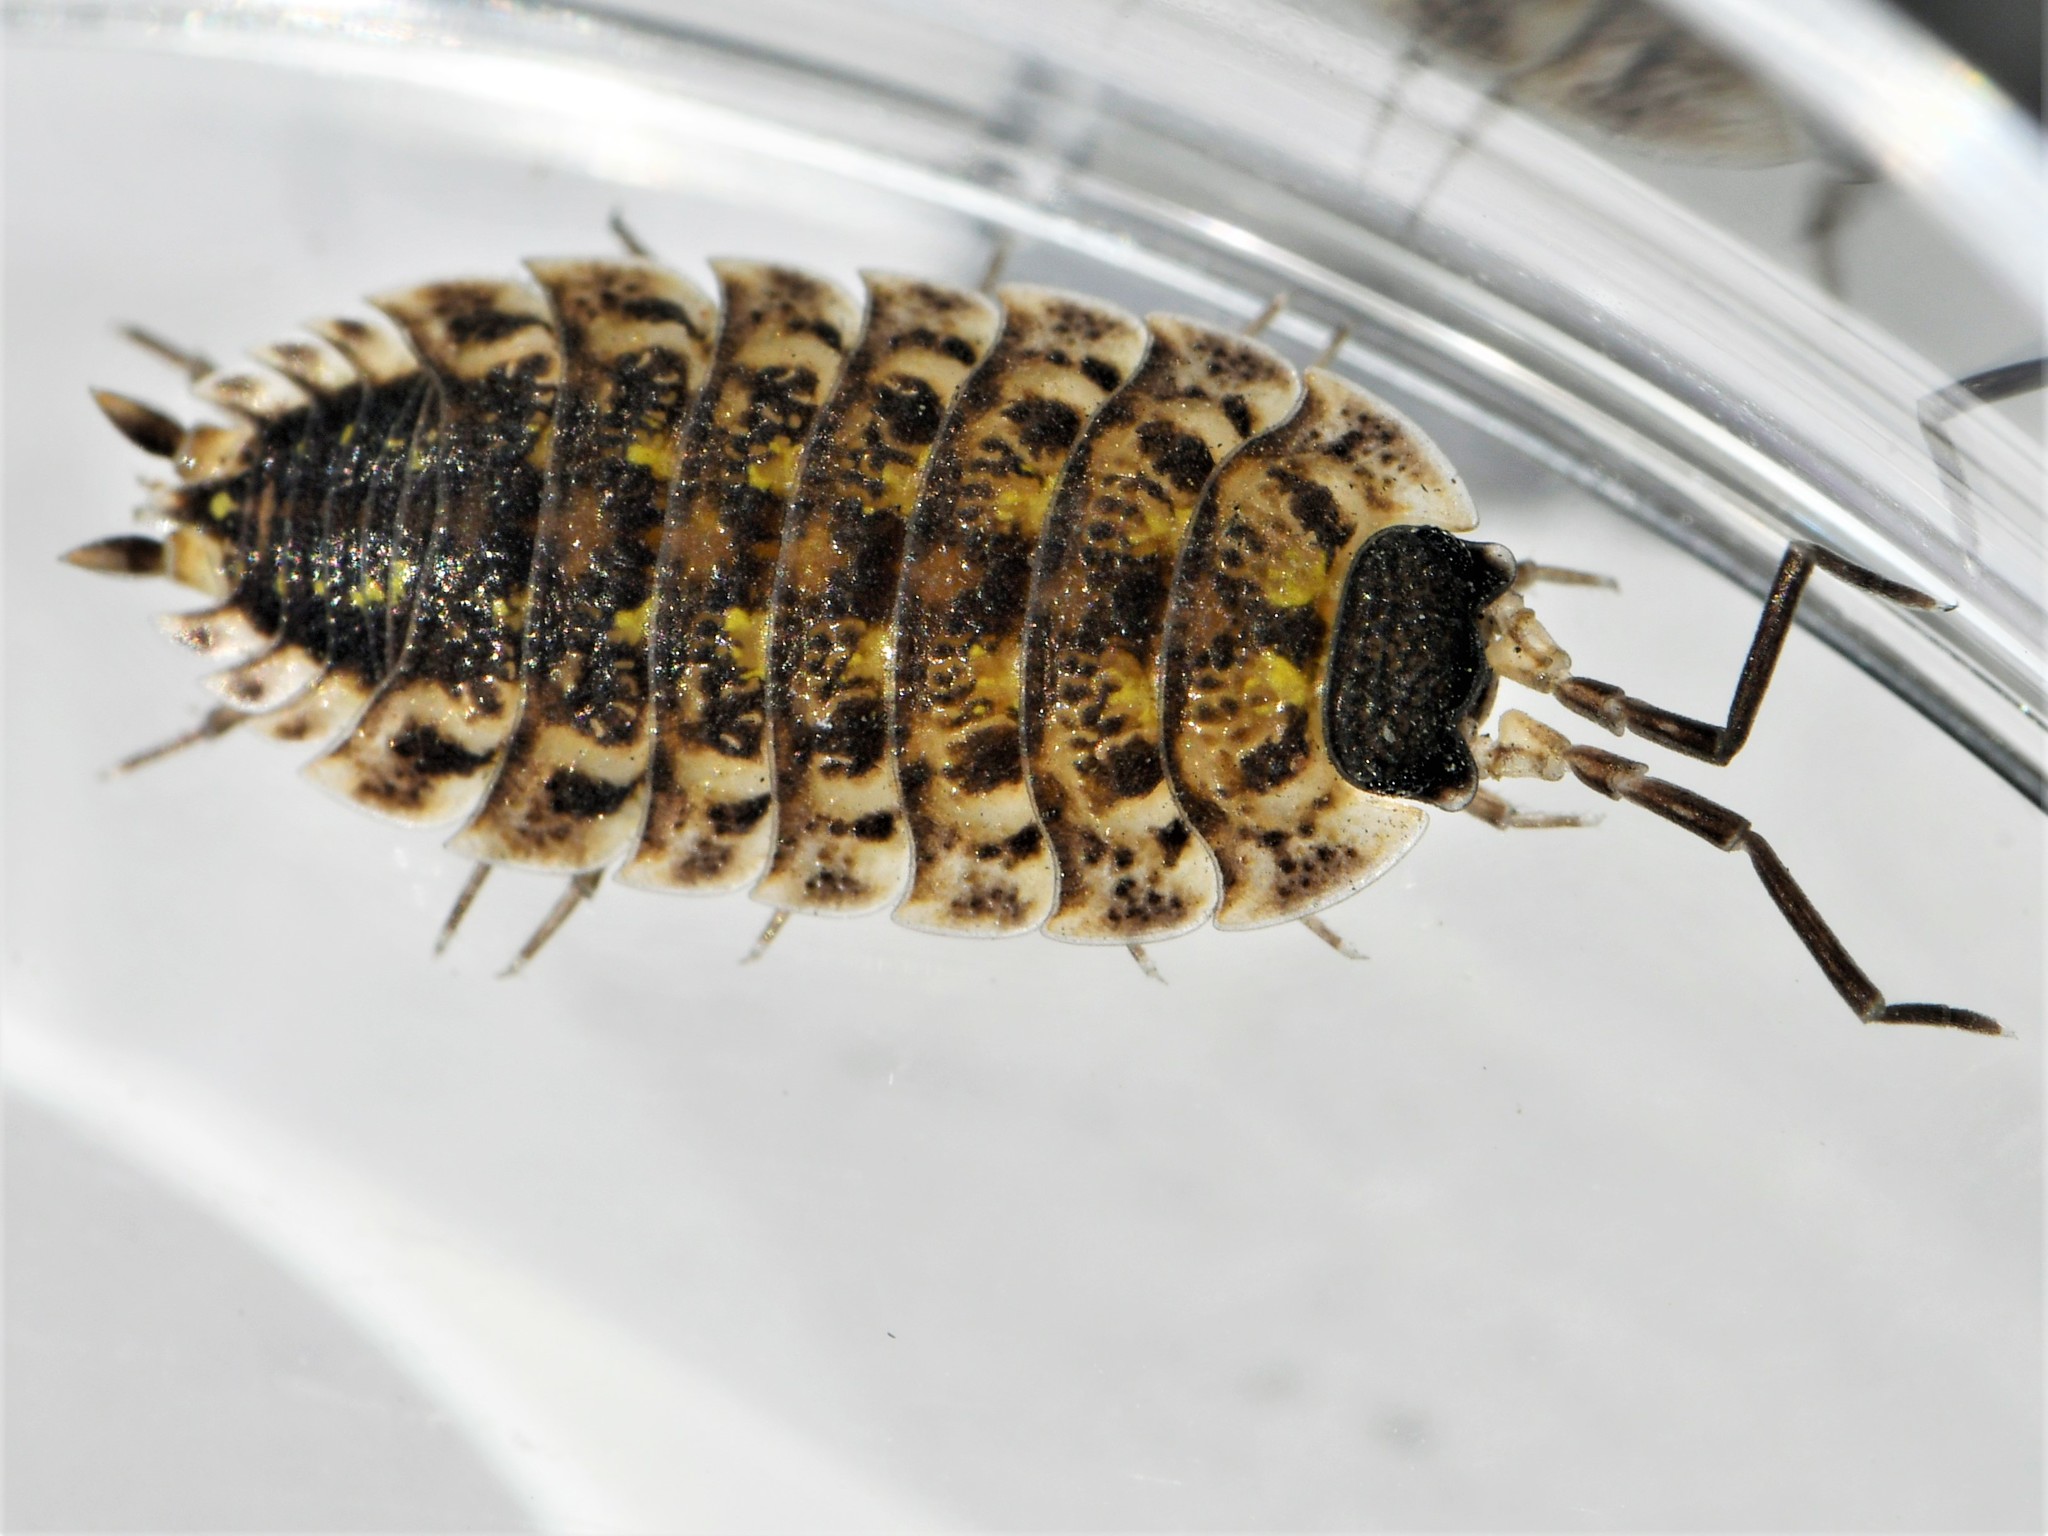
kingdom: Animalia
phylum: Arthropoda
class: Malacostraca
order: Isopoda
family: Porcellionidae
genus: Porcellio
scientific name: Porcellio spinicornis
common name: Painted woodlouse
